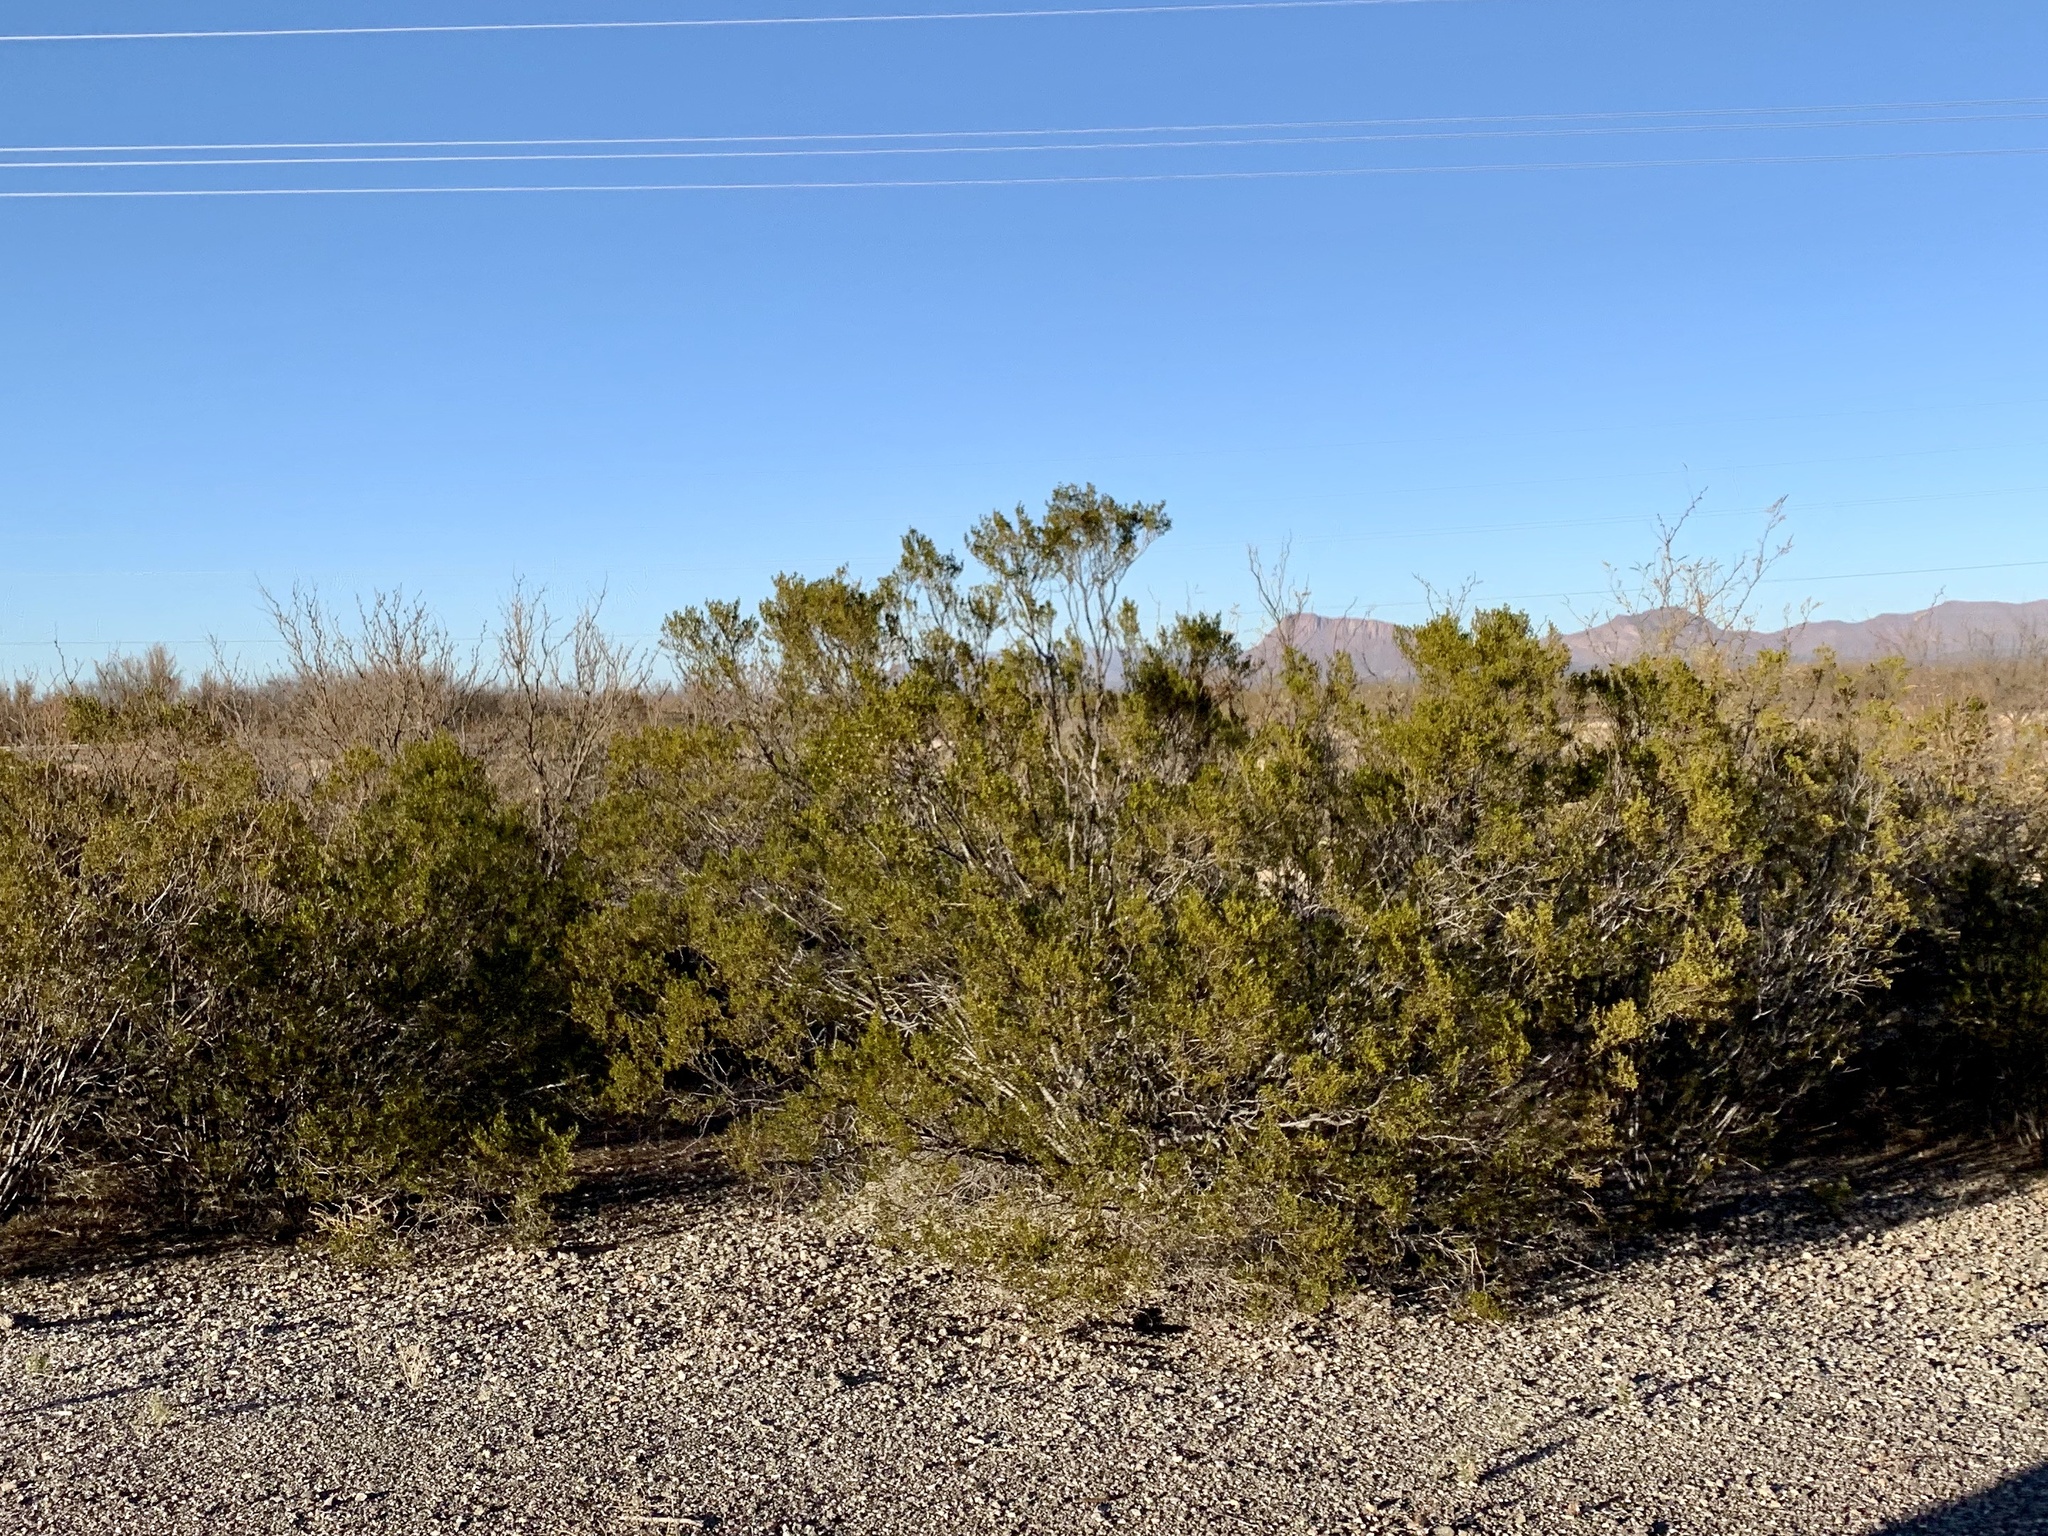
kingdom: Plantae
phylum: Tracheophyta
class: Magnoliopsida
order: Zygophyllales
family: Zygophyllaceae
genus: Larrea
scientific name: Larrea tridentata
